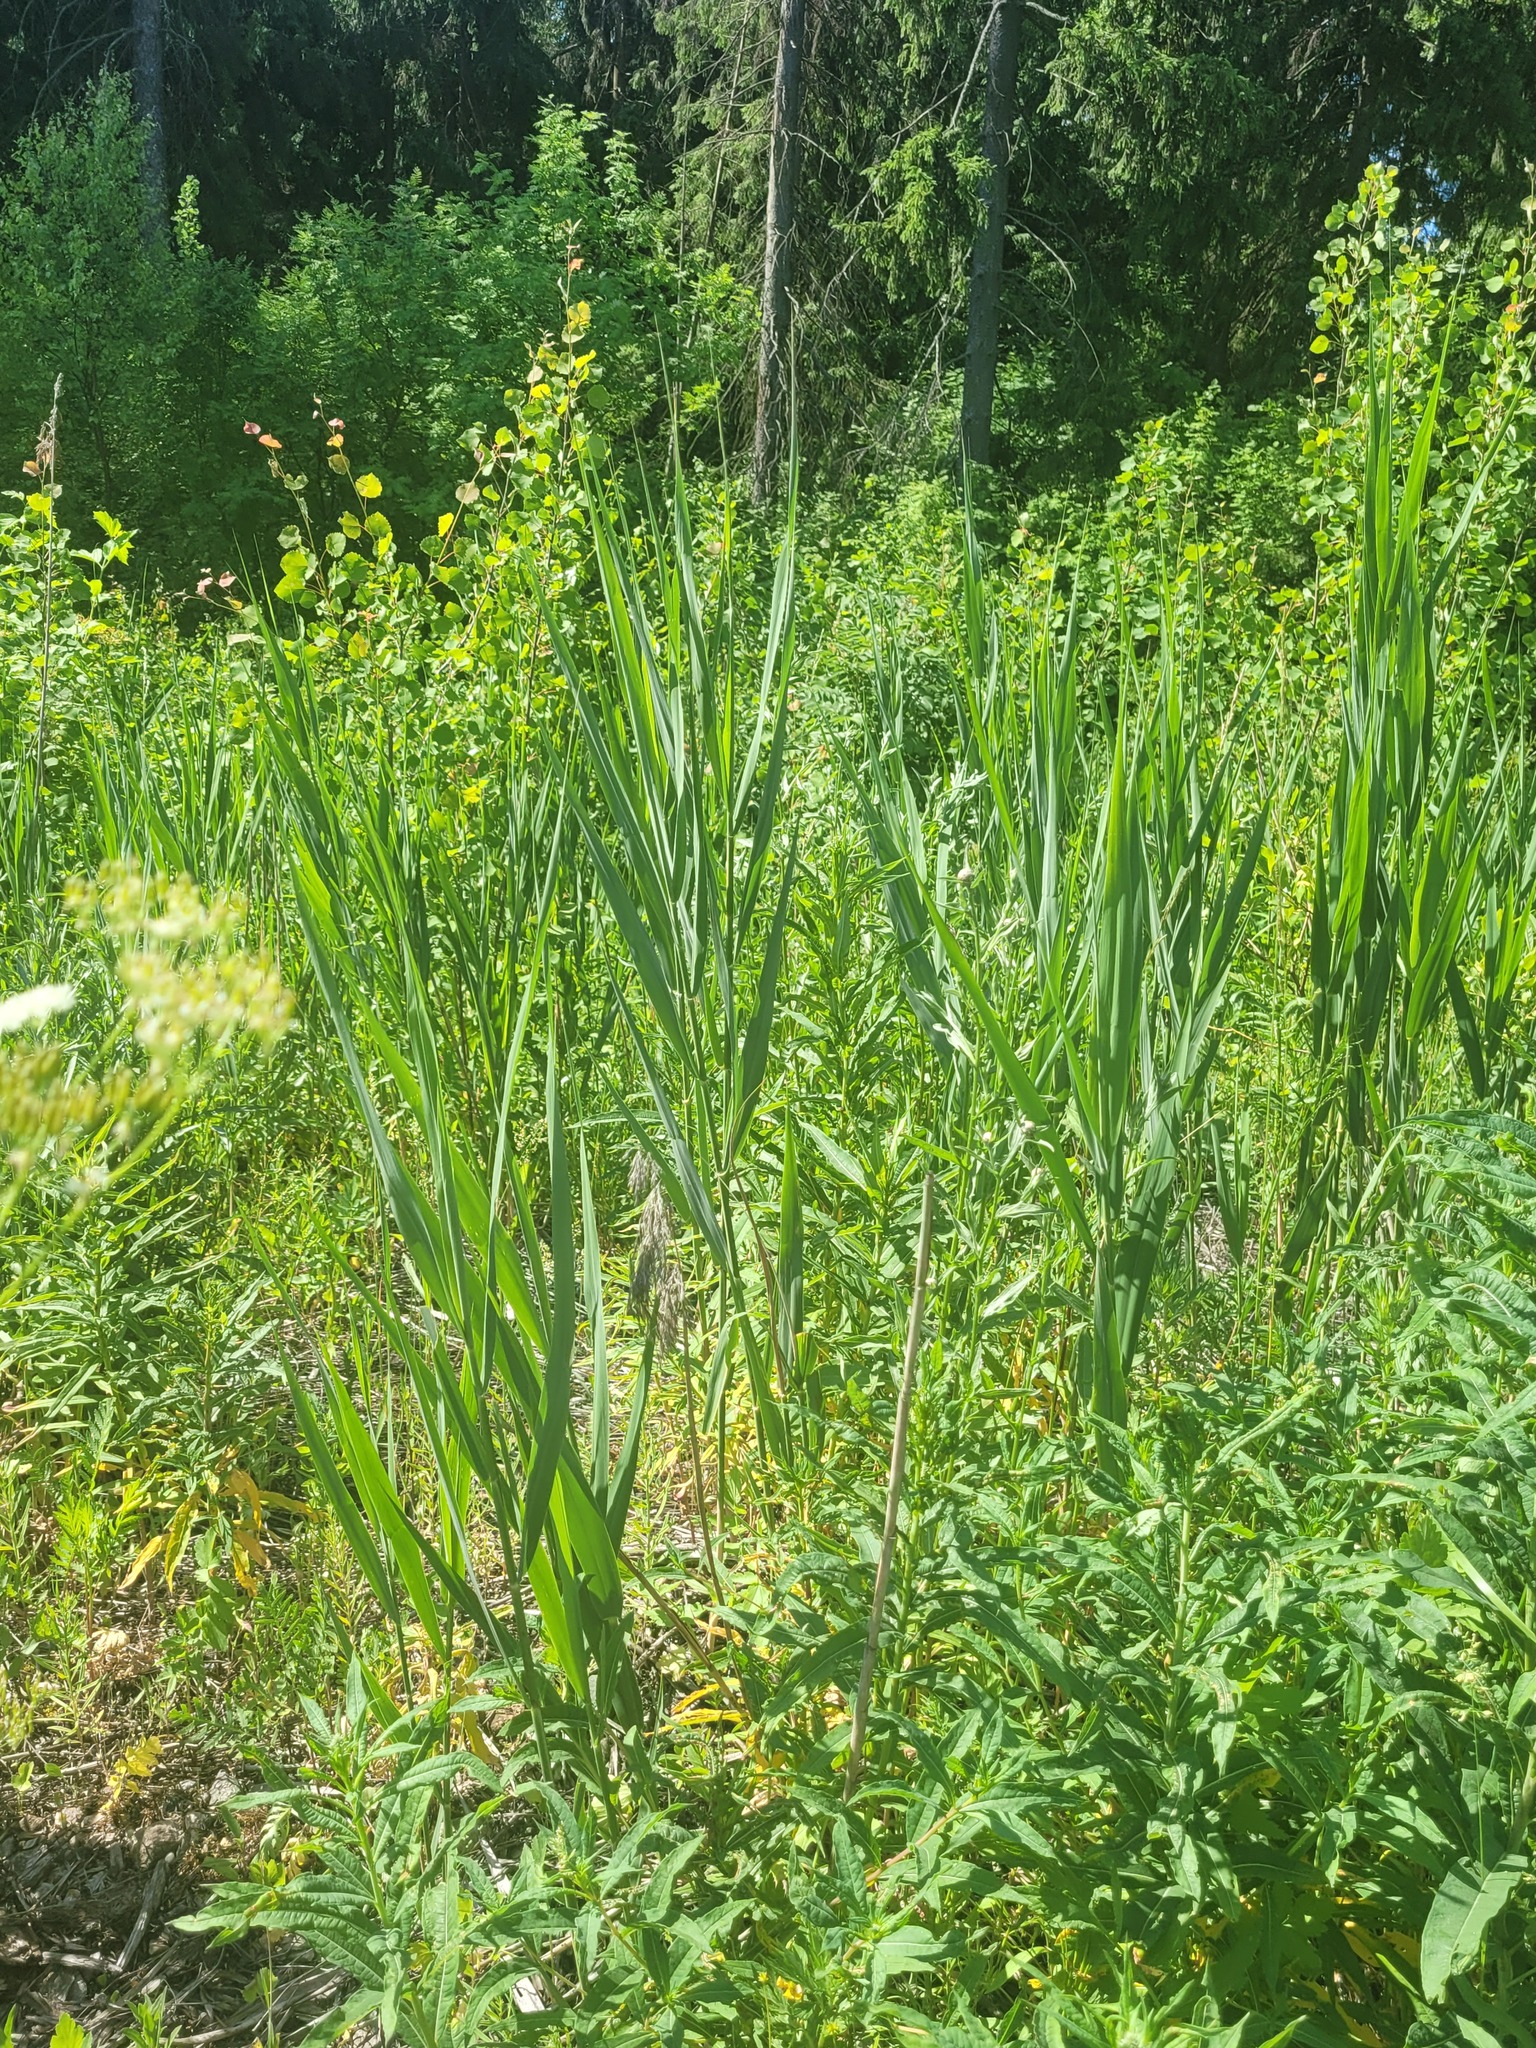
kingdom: Plantae
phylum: Tracheophyta
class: Liliopsida
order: Poales
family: Poaceae
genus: Phragmites
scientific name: Phragmites australis
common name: Common reed
